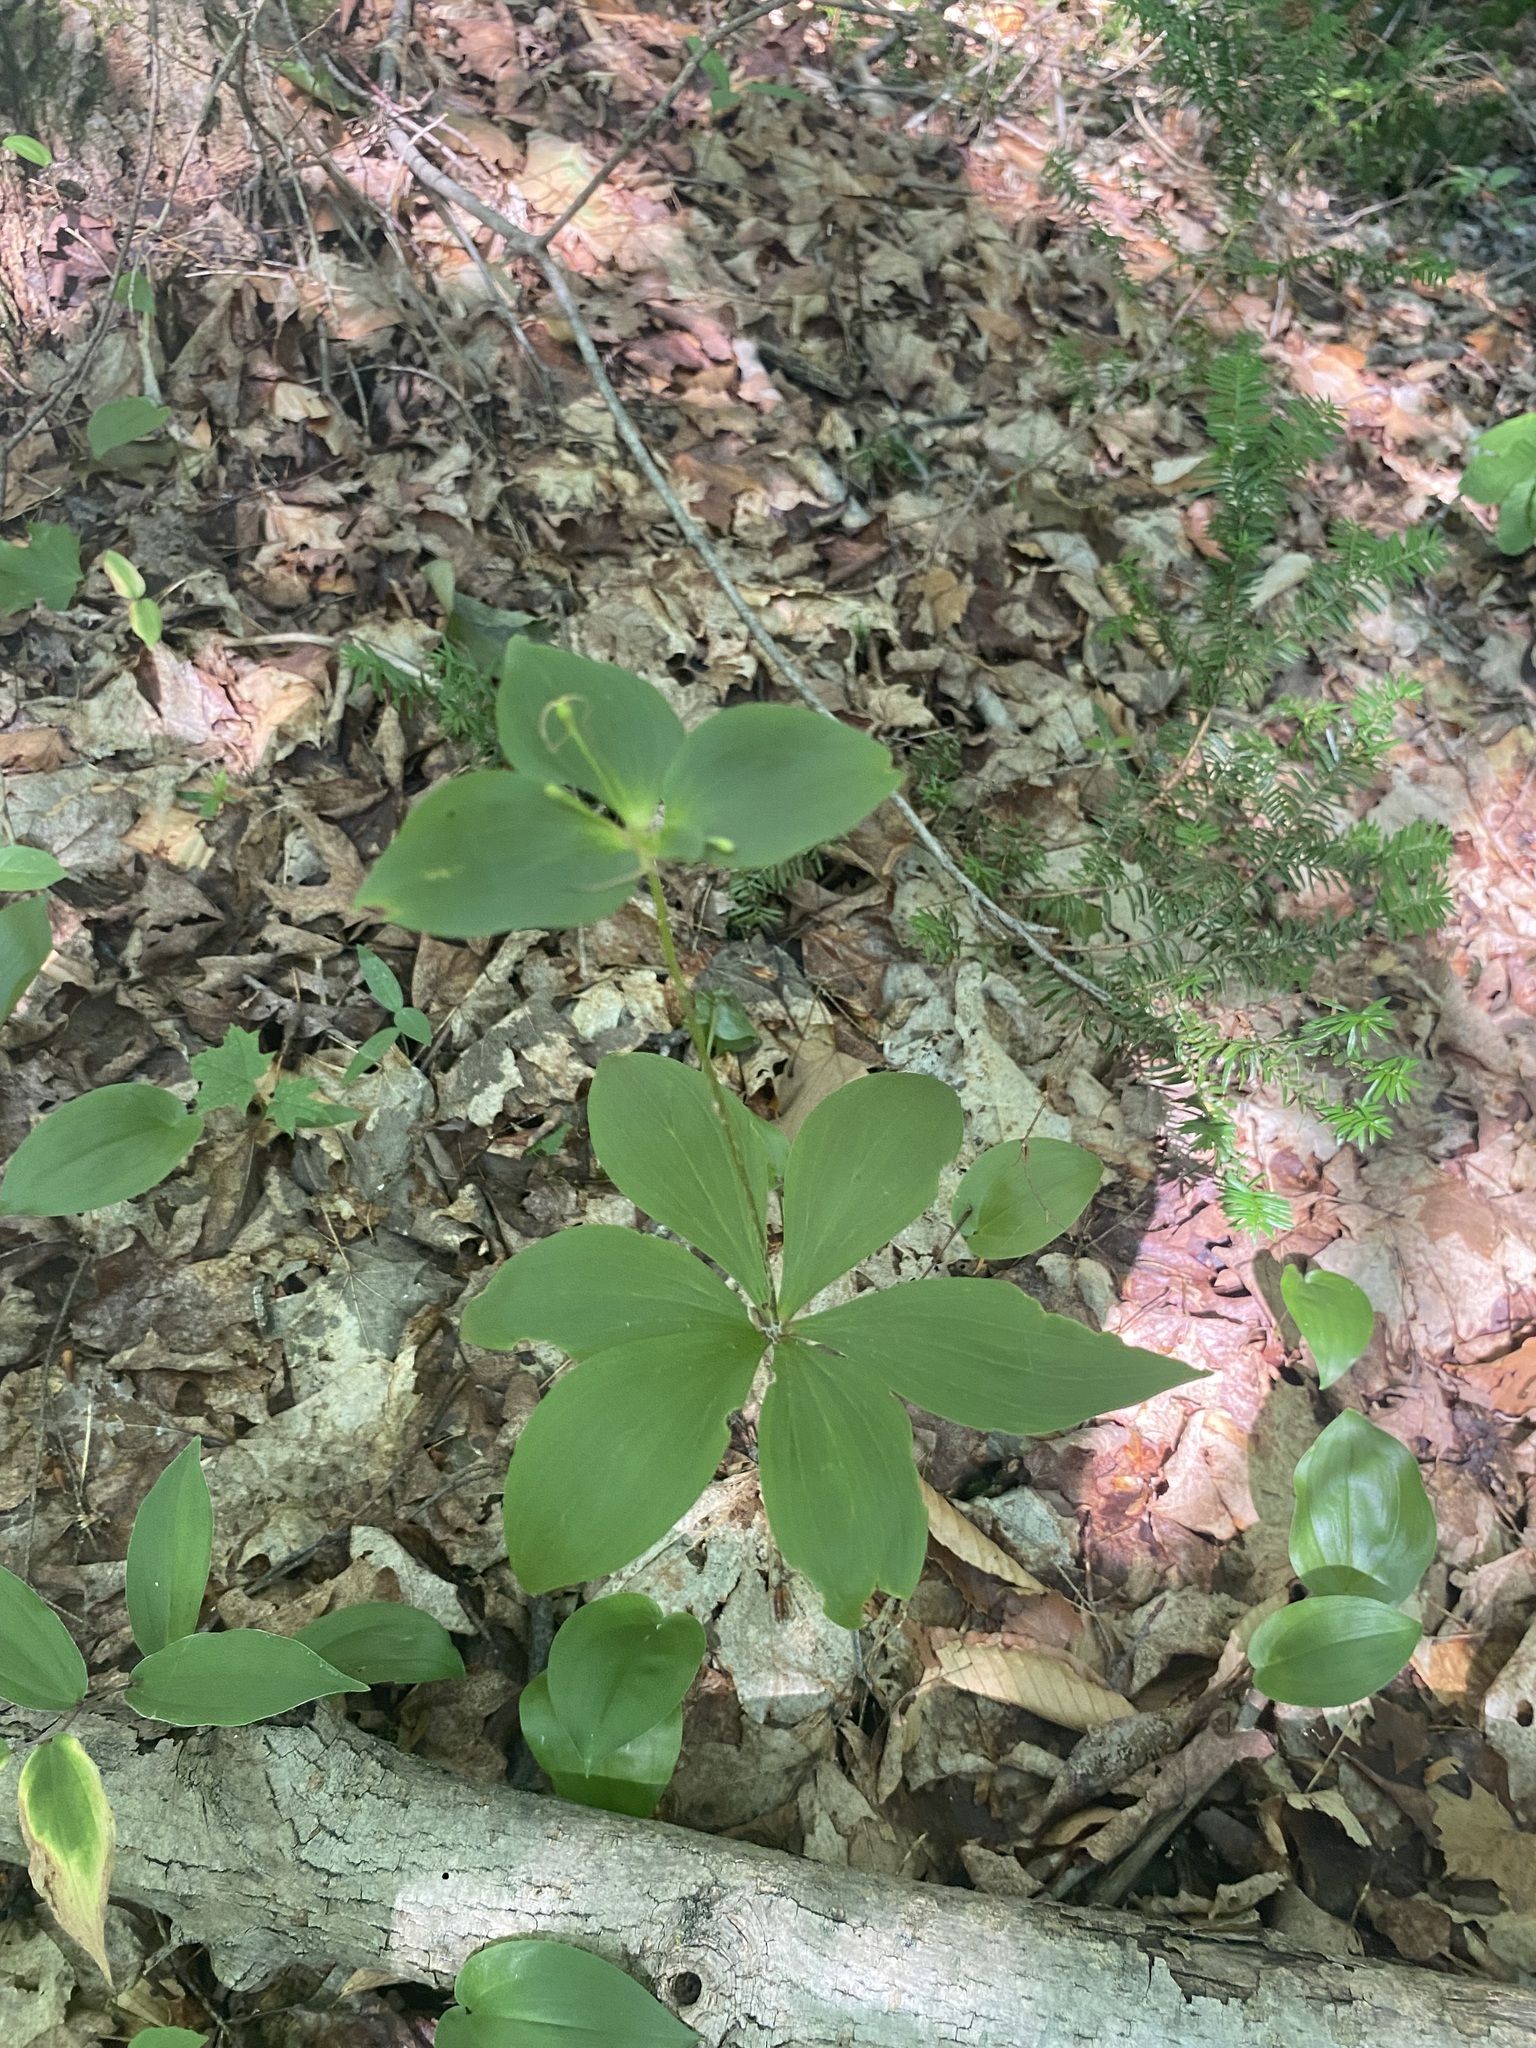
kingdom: Plantae
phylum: Tracheophyta
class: Liliopsida
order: Liliales
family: Liliaceae
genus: Medeola
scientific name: Medeola virginiana
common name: Indian cucumber-root
